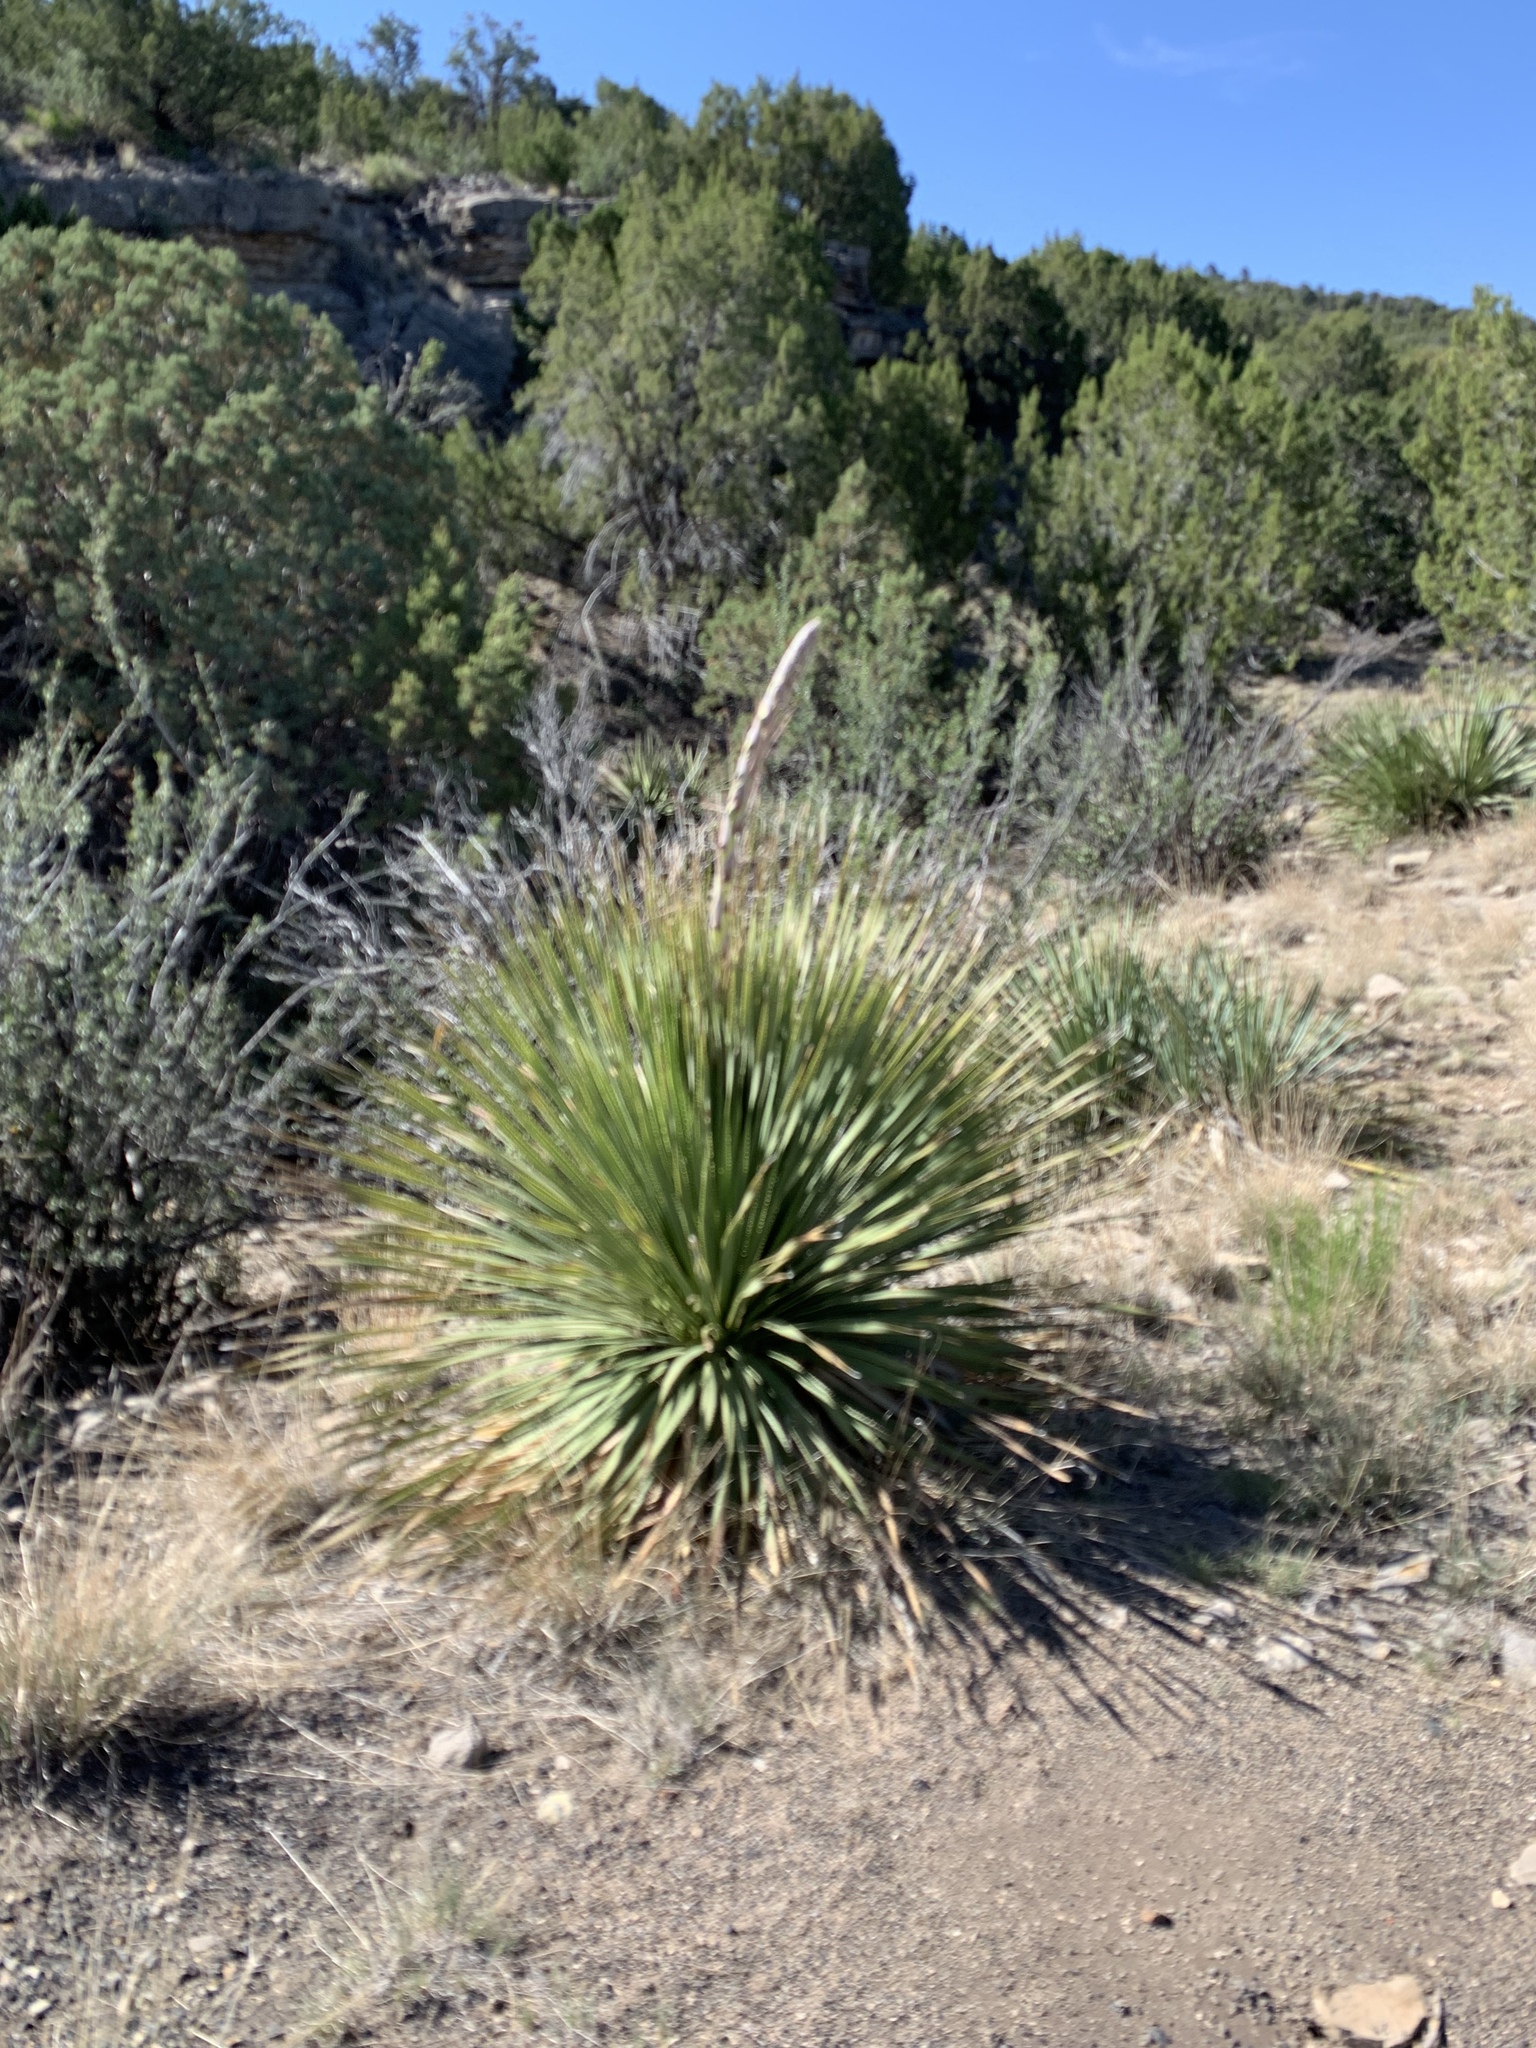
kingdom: Plantae
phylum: Tracheophyta
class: Liliopsida
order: Asparagales
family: Asparagaceae
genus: Dasylirion
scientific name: Dasylirion wheeleri
